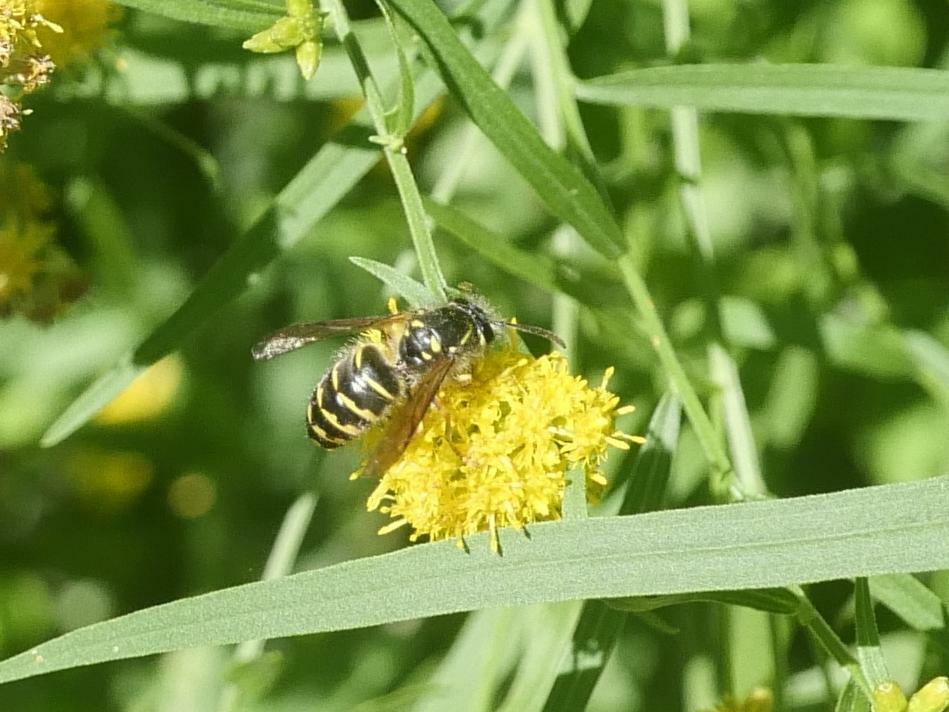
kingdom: Animalia
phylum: Arthropoda
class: Insecta
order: Hymenoptera
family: Vespidae
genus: Dolichovespula
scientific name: Dolichovespula arenaria
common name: Aerial yellowjacket
